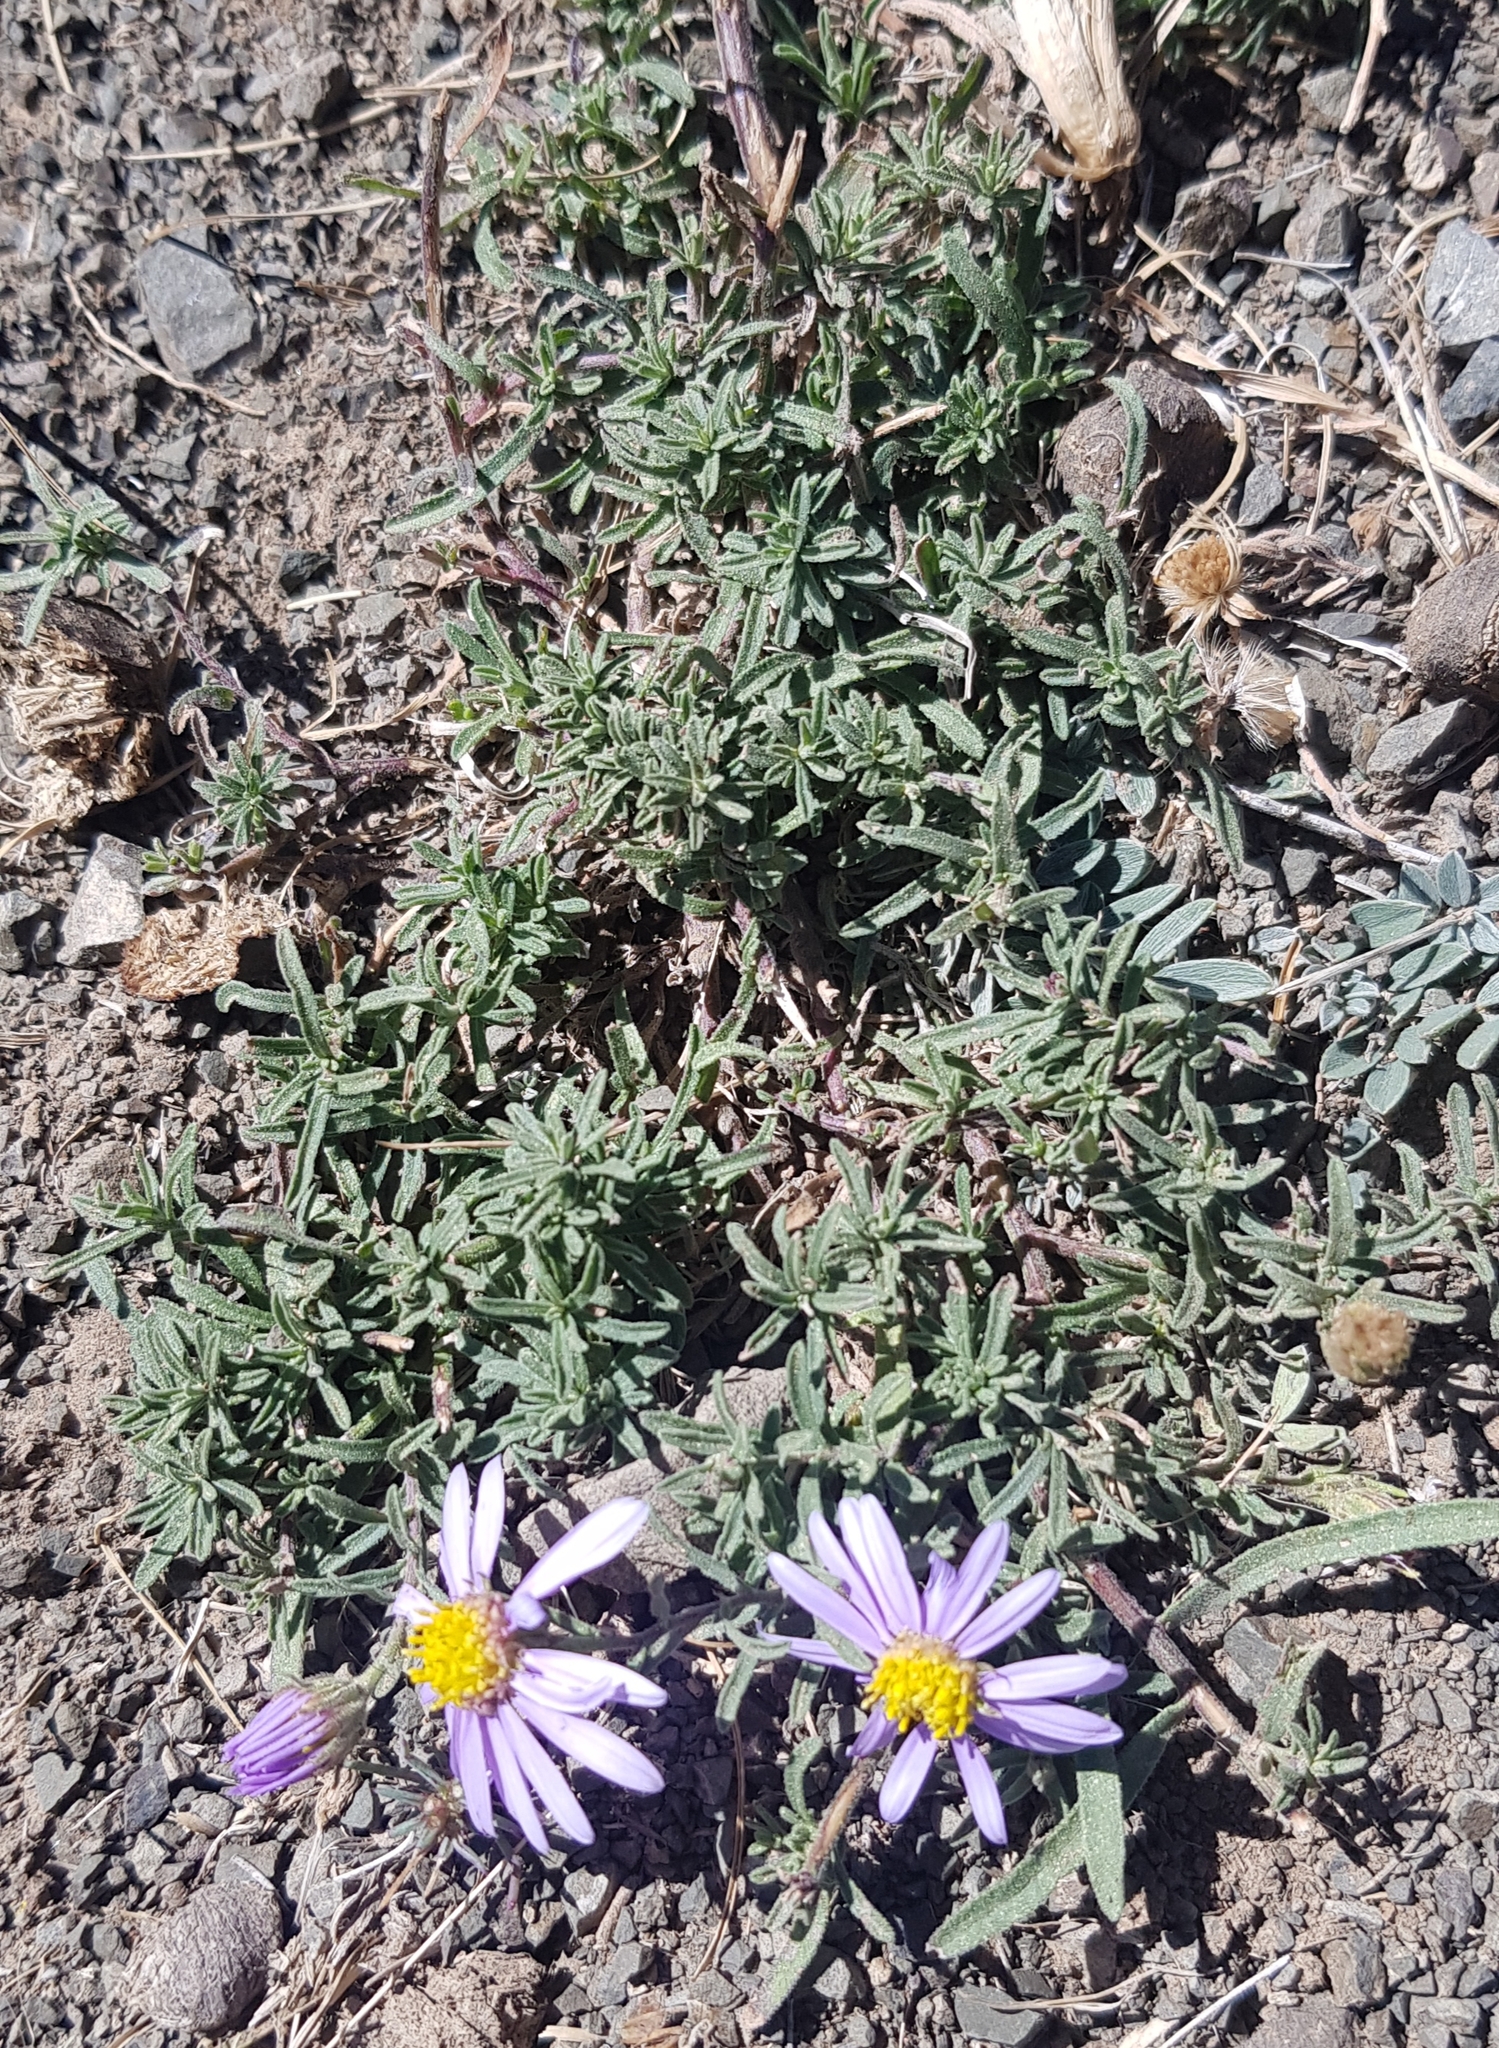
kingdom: Plantae
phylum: Tracheophyta
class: Magnoliopsida
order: Asterales
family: Asteraceae
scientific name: Asteraceae
